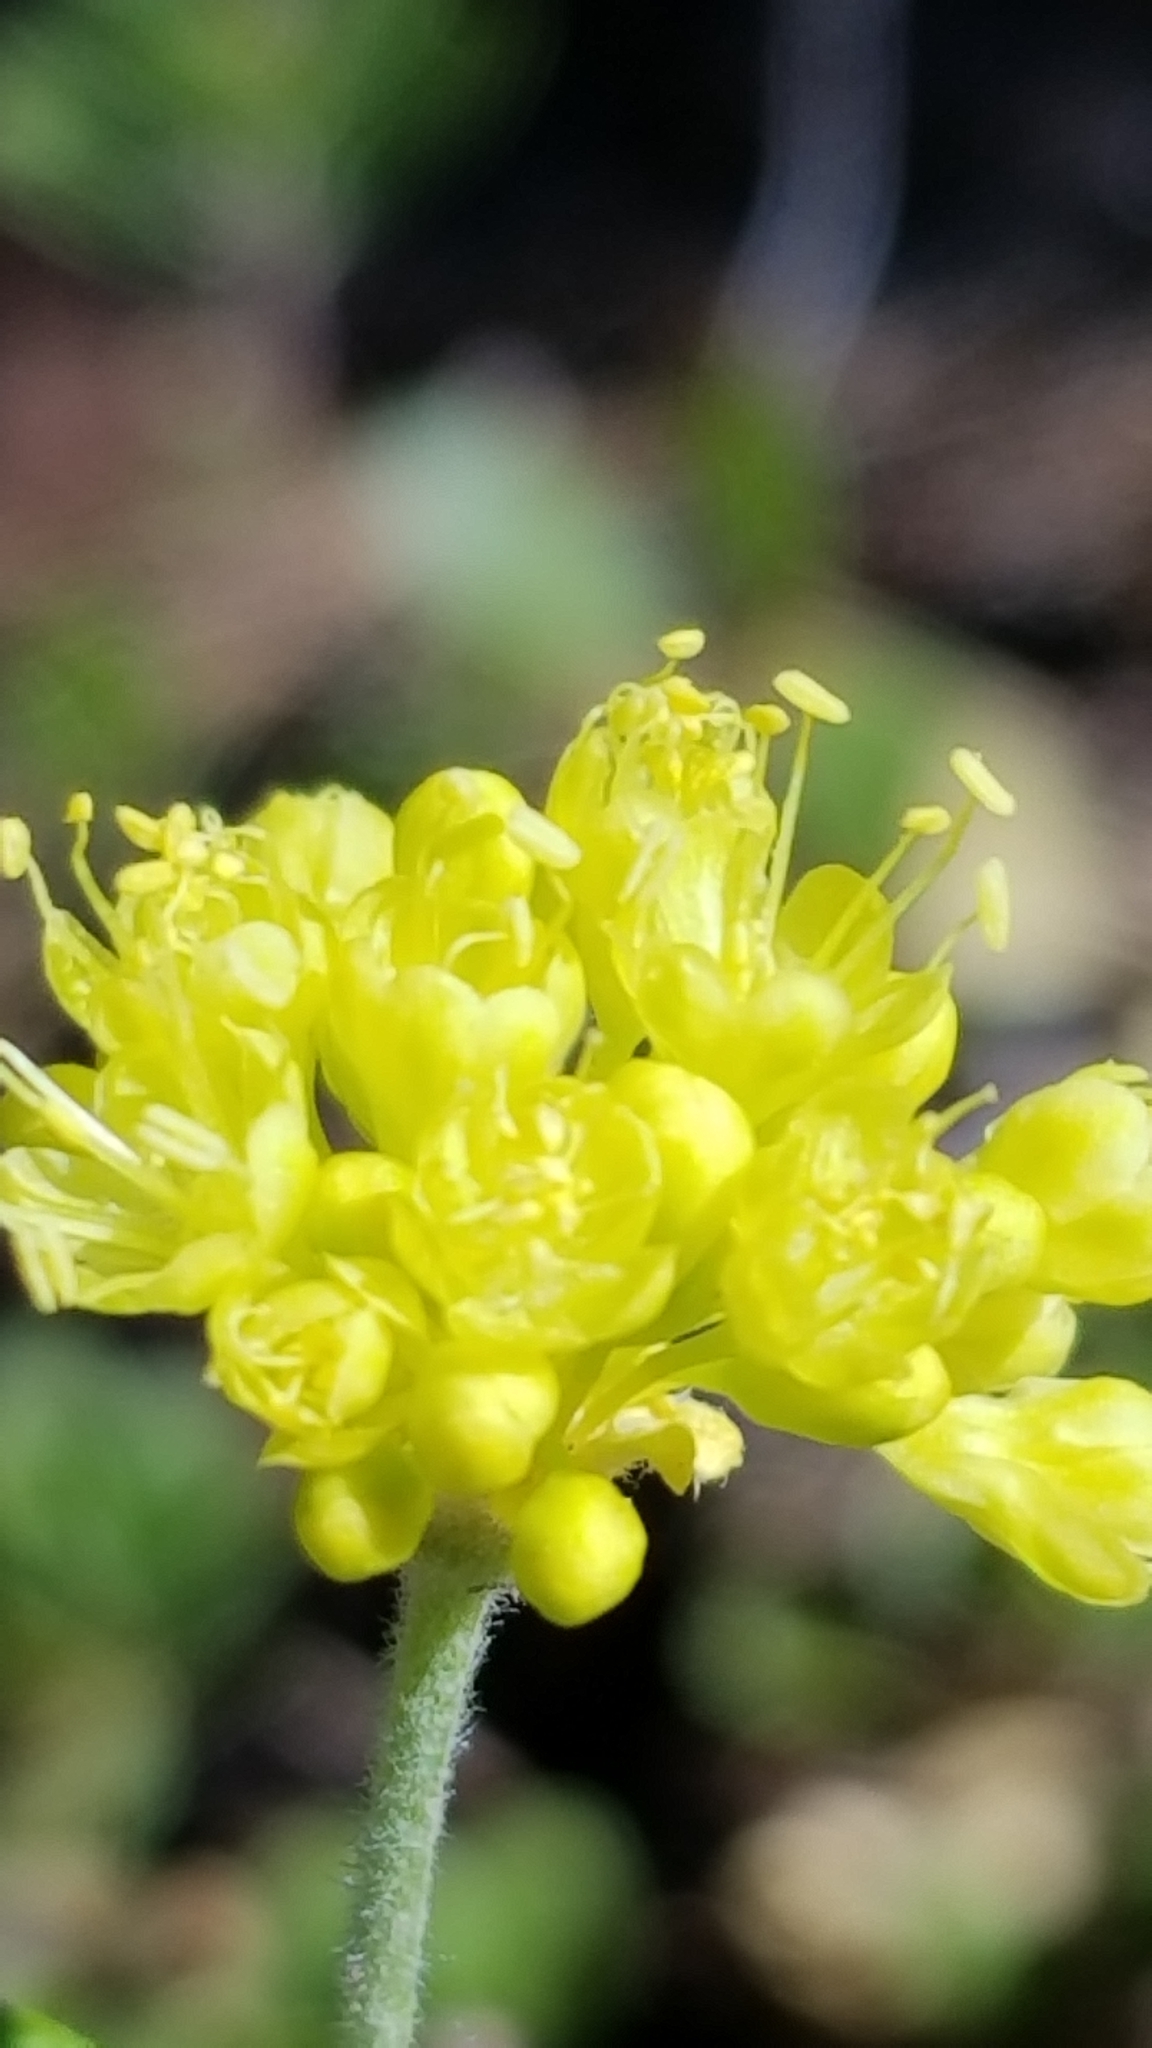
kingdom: Plantae
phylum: Tracheophyta
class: Magnoliopsida
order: Caryophyllales
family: Polygonaceae
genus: Eriogonum
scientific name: Eriogonum umbellatum
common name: Sulfur-buckwheat
